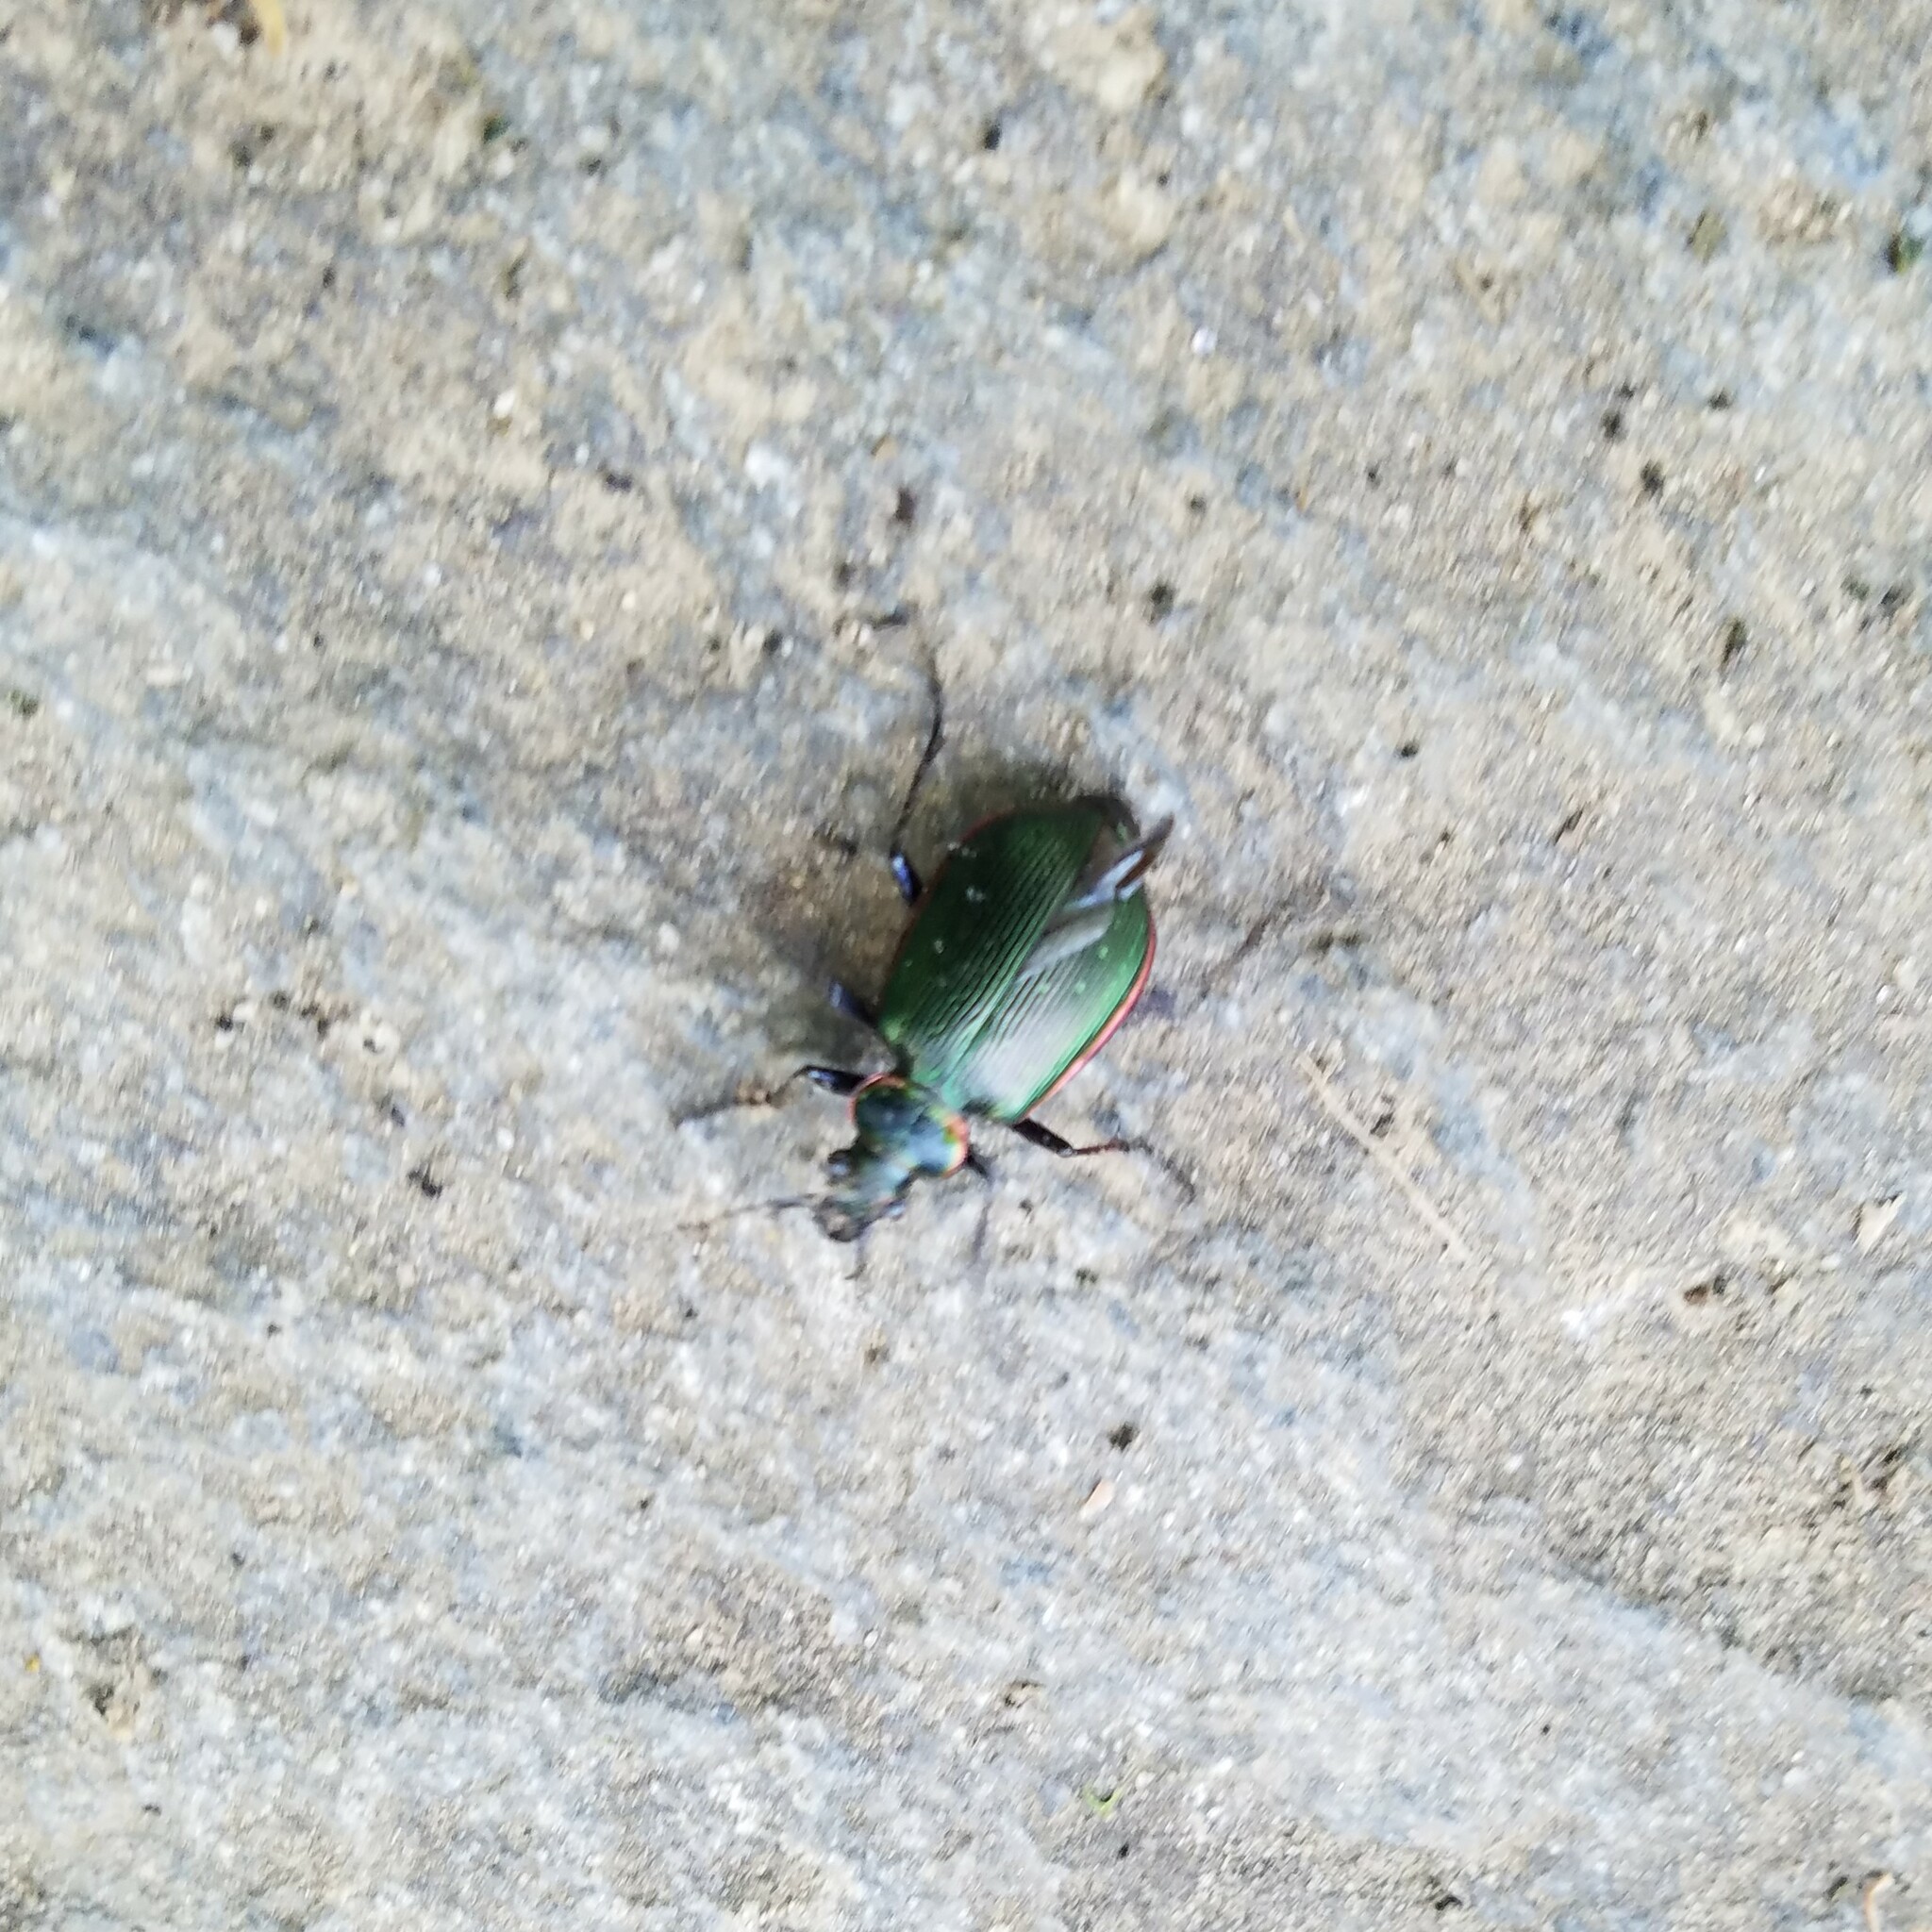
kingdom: Animalia
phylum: Arthropoda
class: Insecta
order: Coleoptera
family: Carabidae
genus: Calosoma
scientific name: Calosoma wilcoxi
